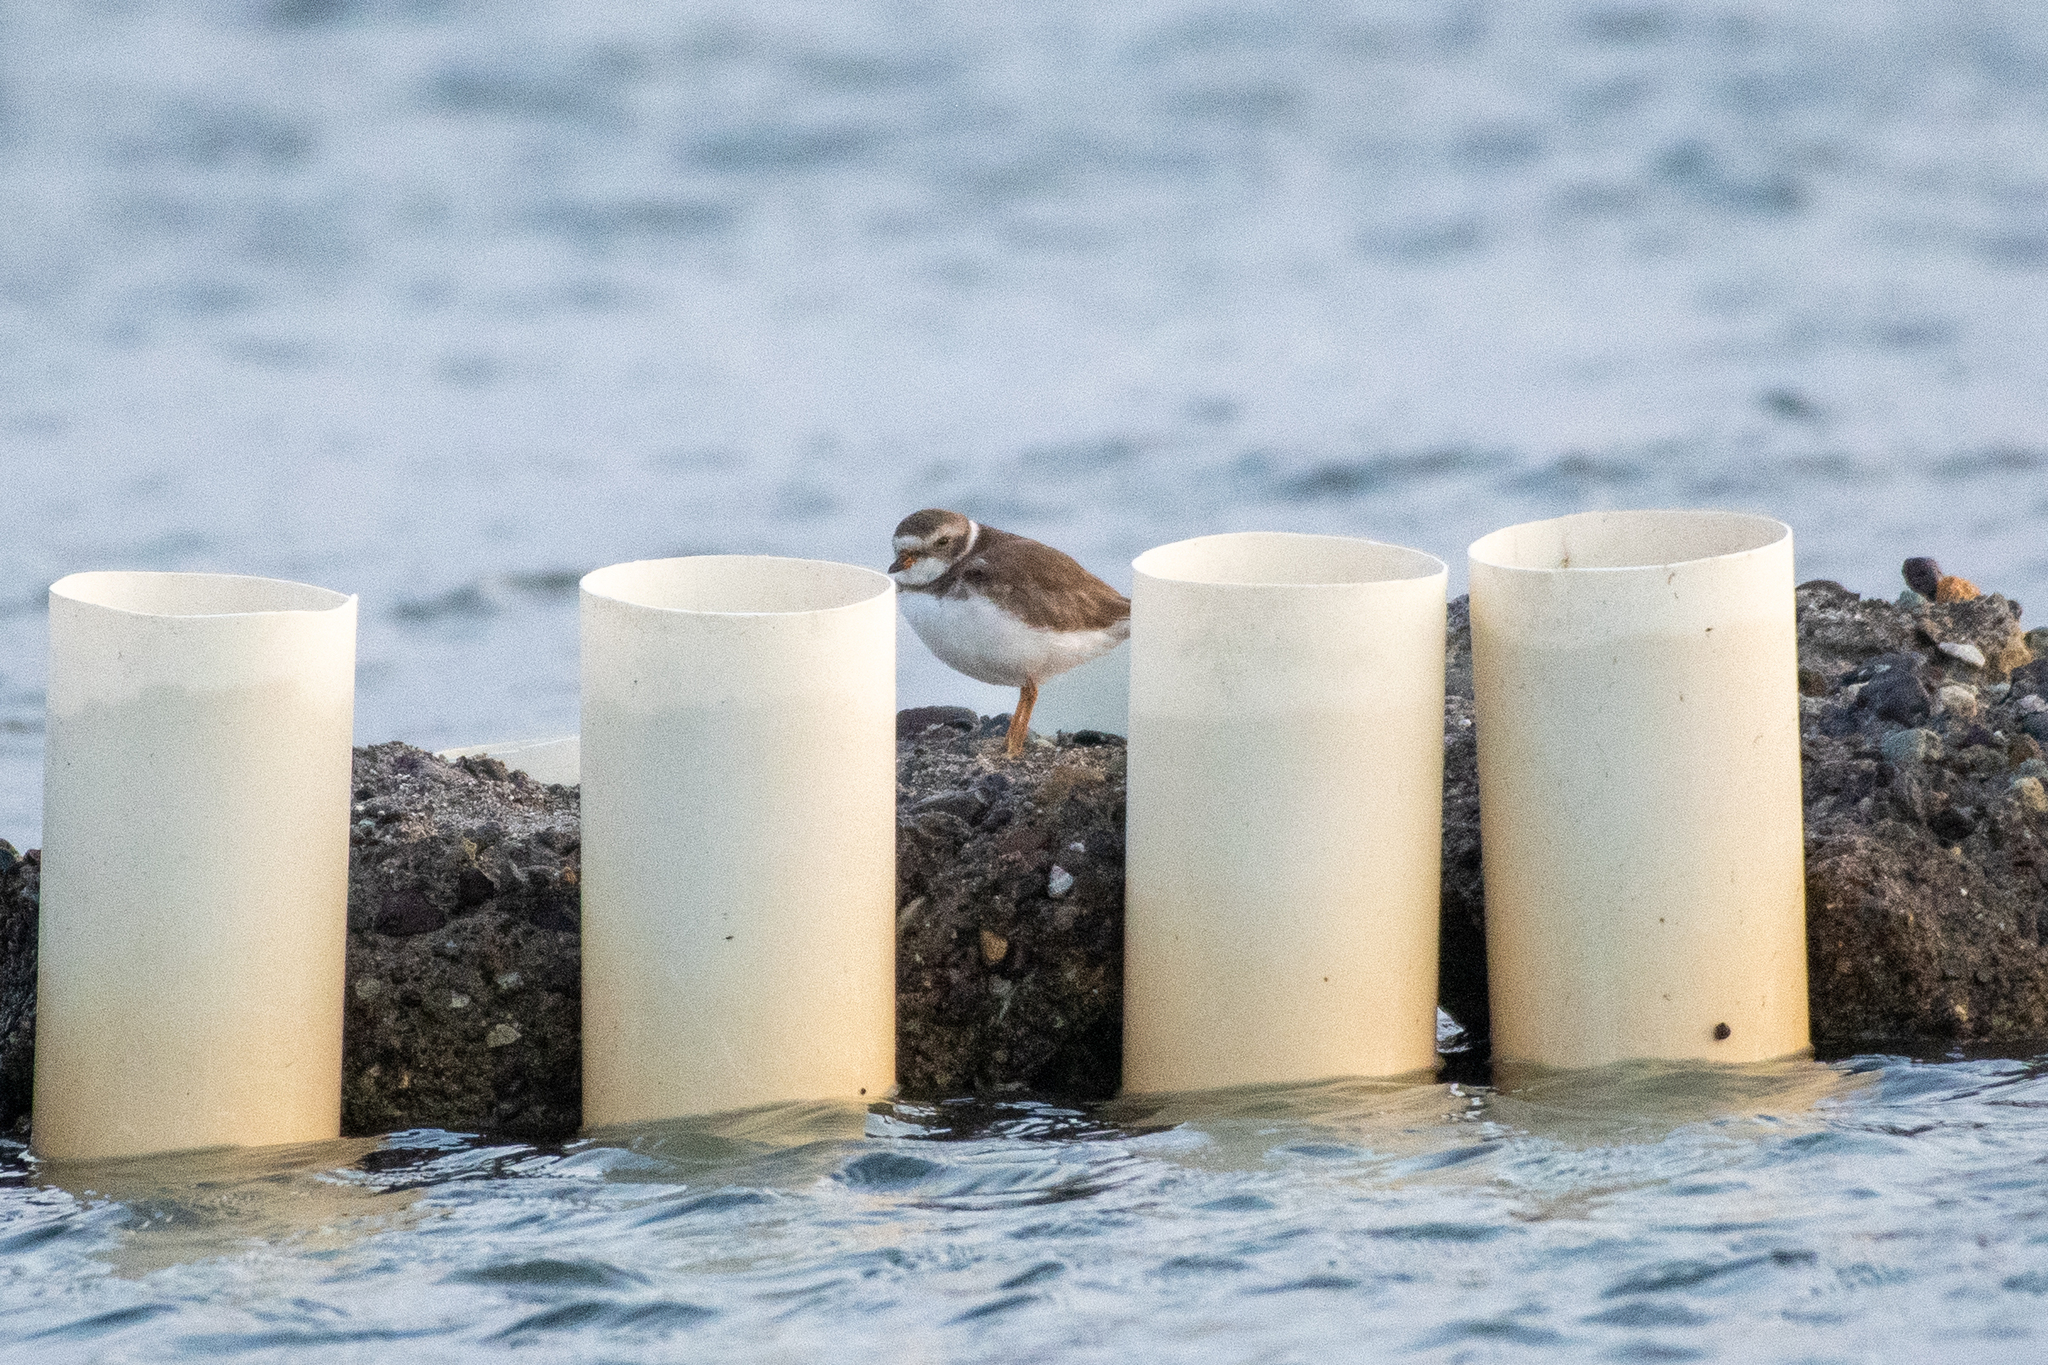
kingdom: Animalia
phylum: Chordata
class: Aves
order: Charadriiformes
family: Charadriidae
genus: Charadrius
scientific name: Charadrius semipalmatus
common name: Semipalmated plover
